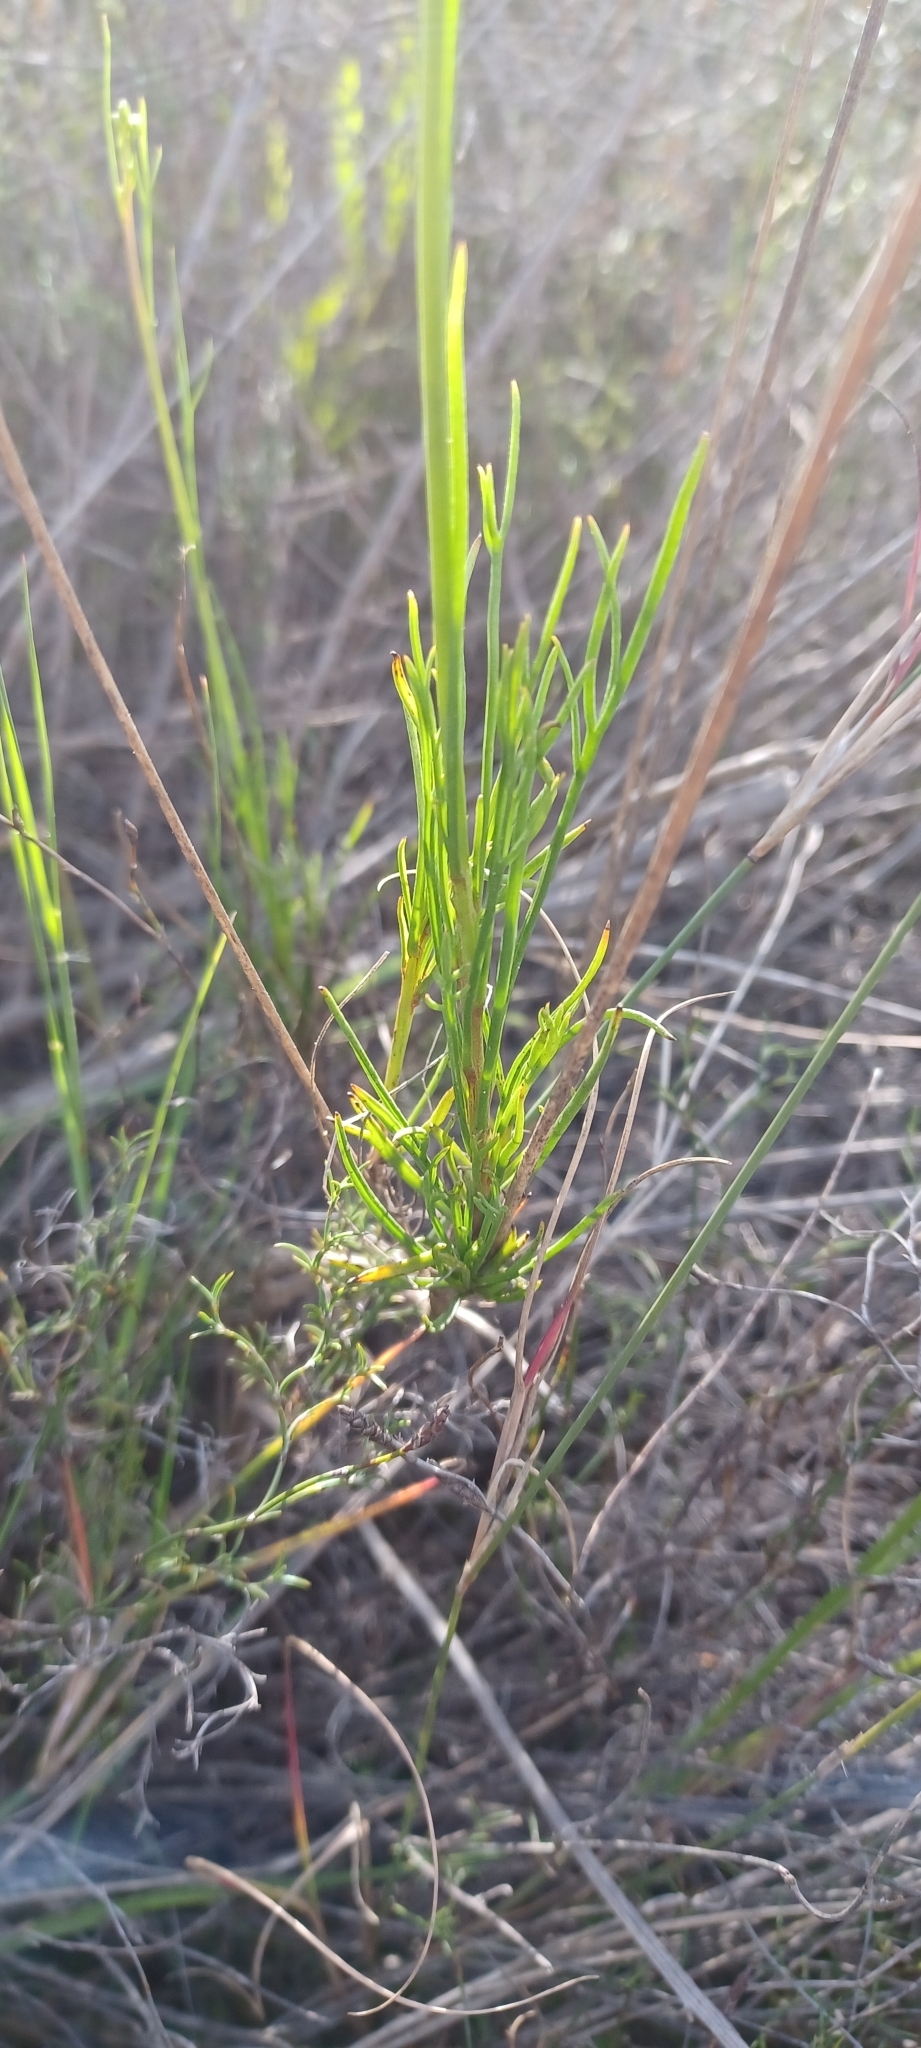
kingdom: Plantae
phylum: Tracheophyta
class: Magnoliopsida
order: Brassicales
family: Brassicaceae
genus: Heliophila
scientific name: Heliophila carnosa
